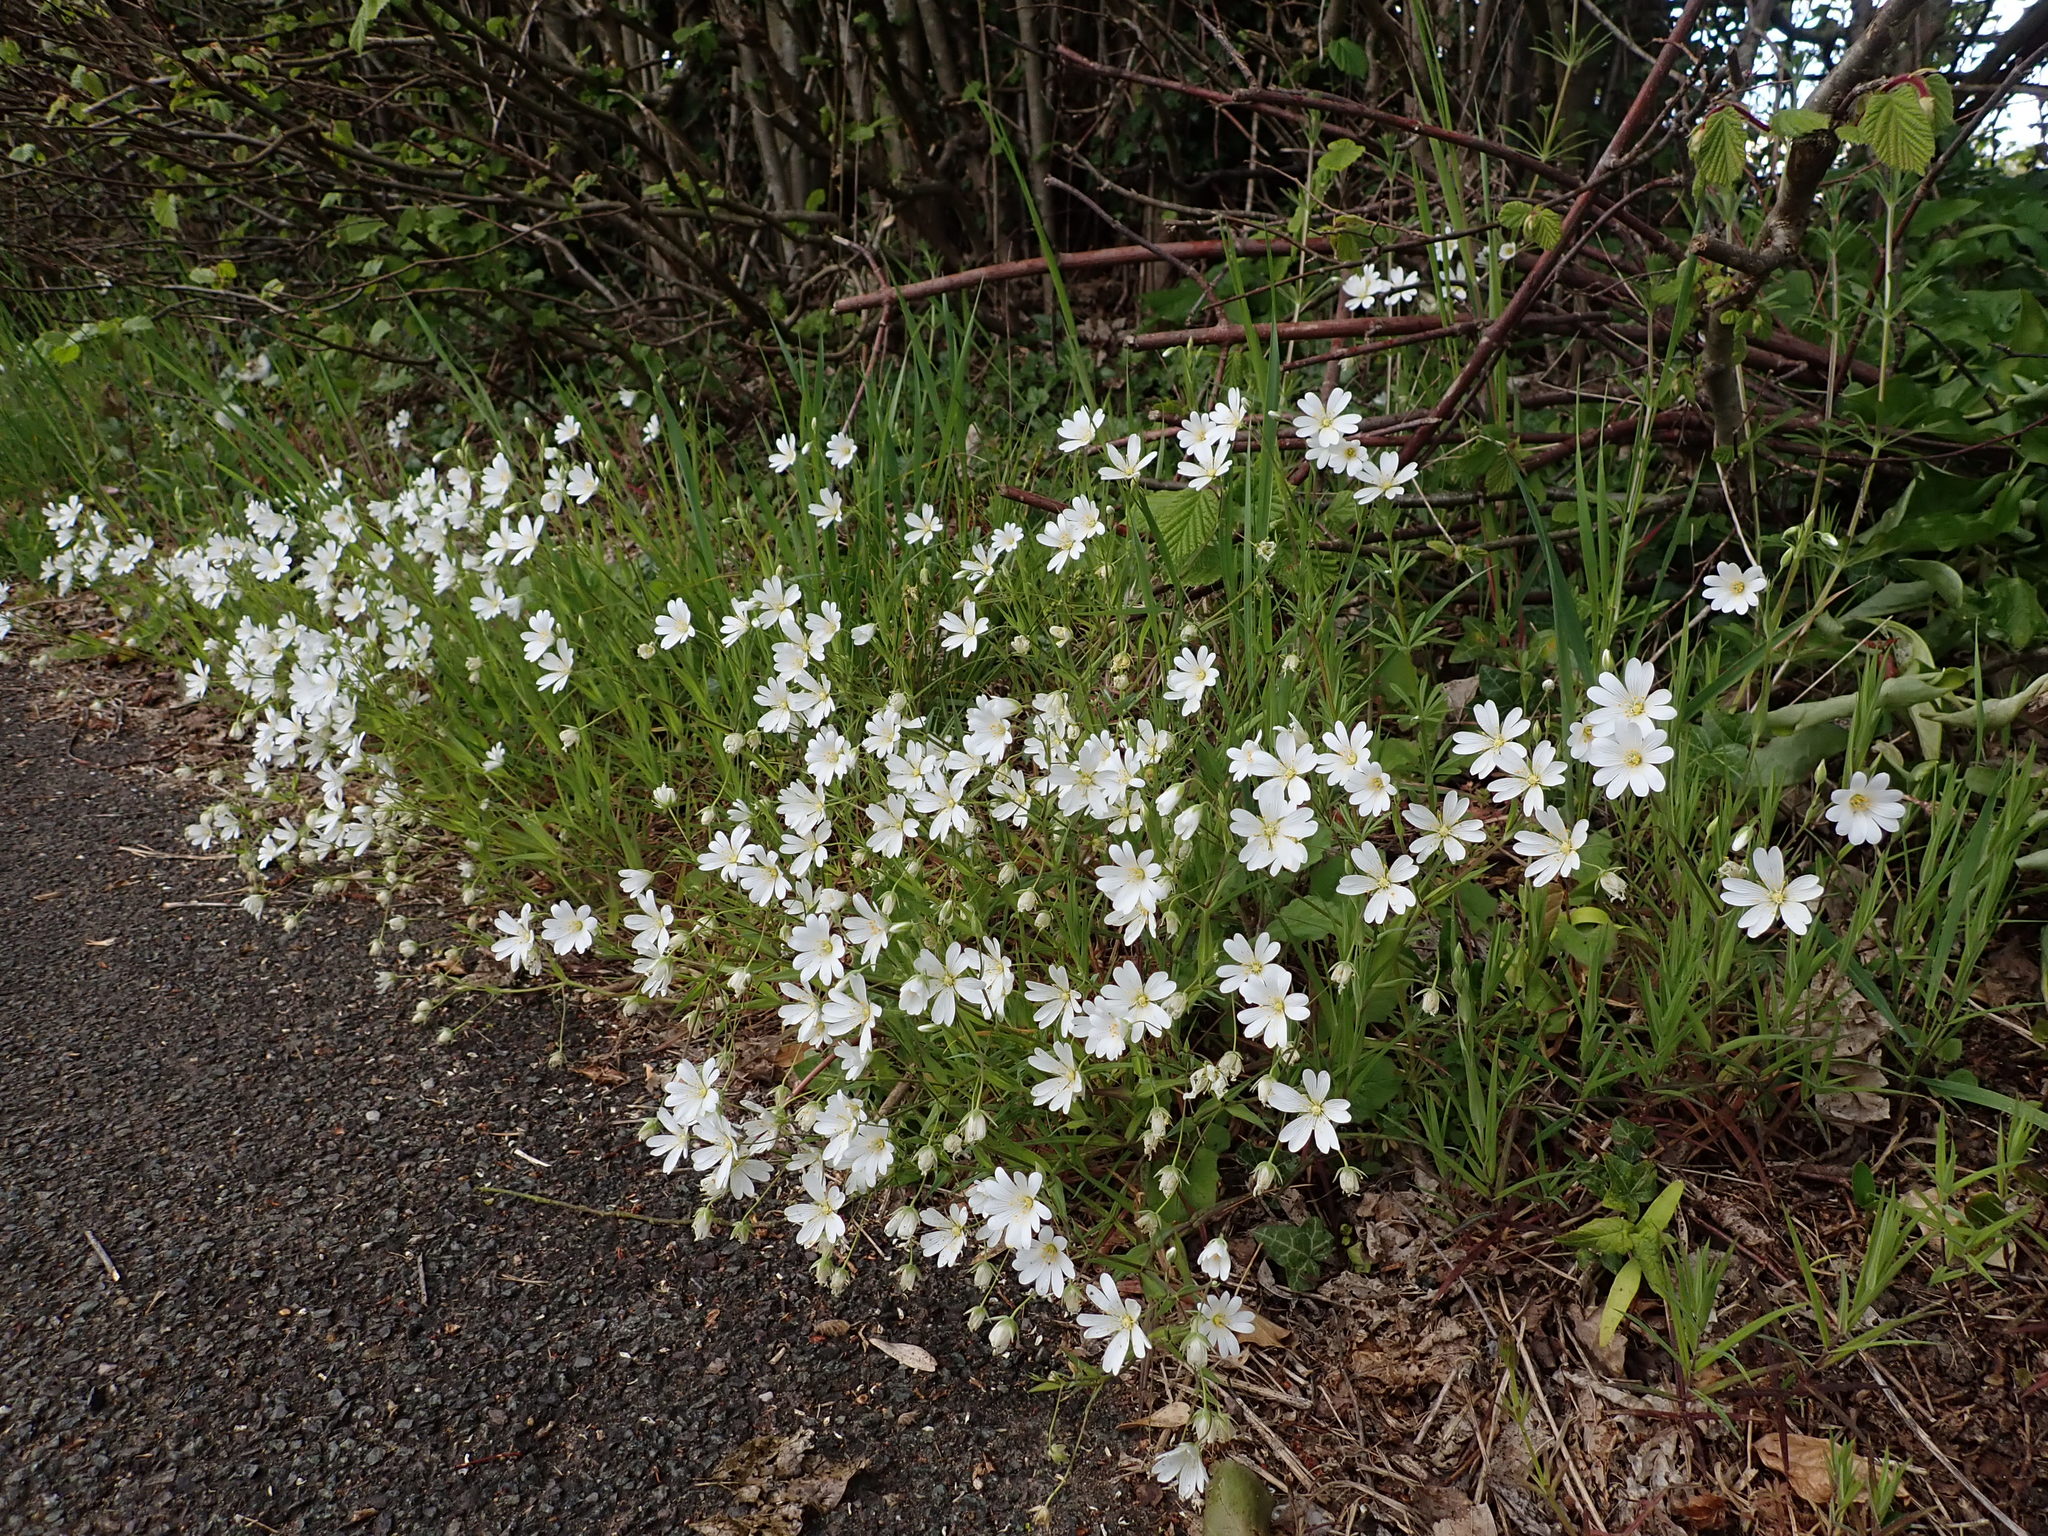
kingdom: Plantae
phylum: Tracheophyta
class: Magnoliopsida
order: Caryophyllales
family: Caryophyllaceae
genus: Rabelera
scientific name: Rabelera holostea
